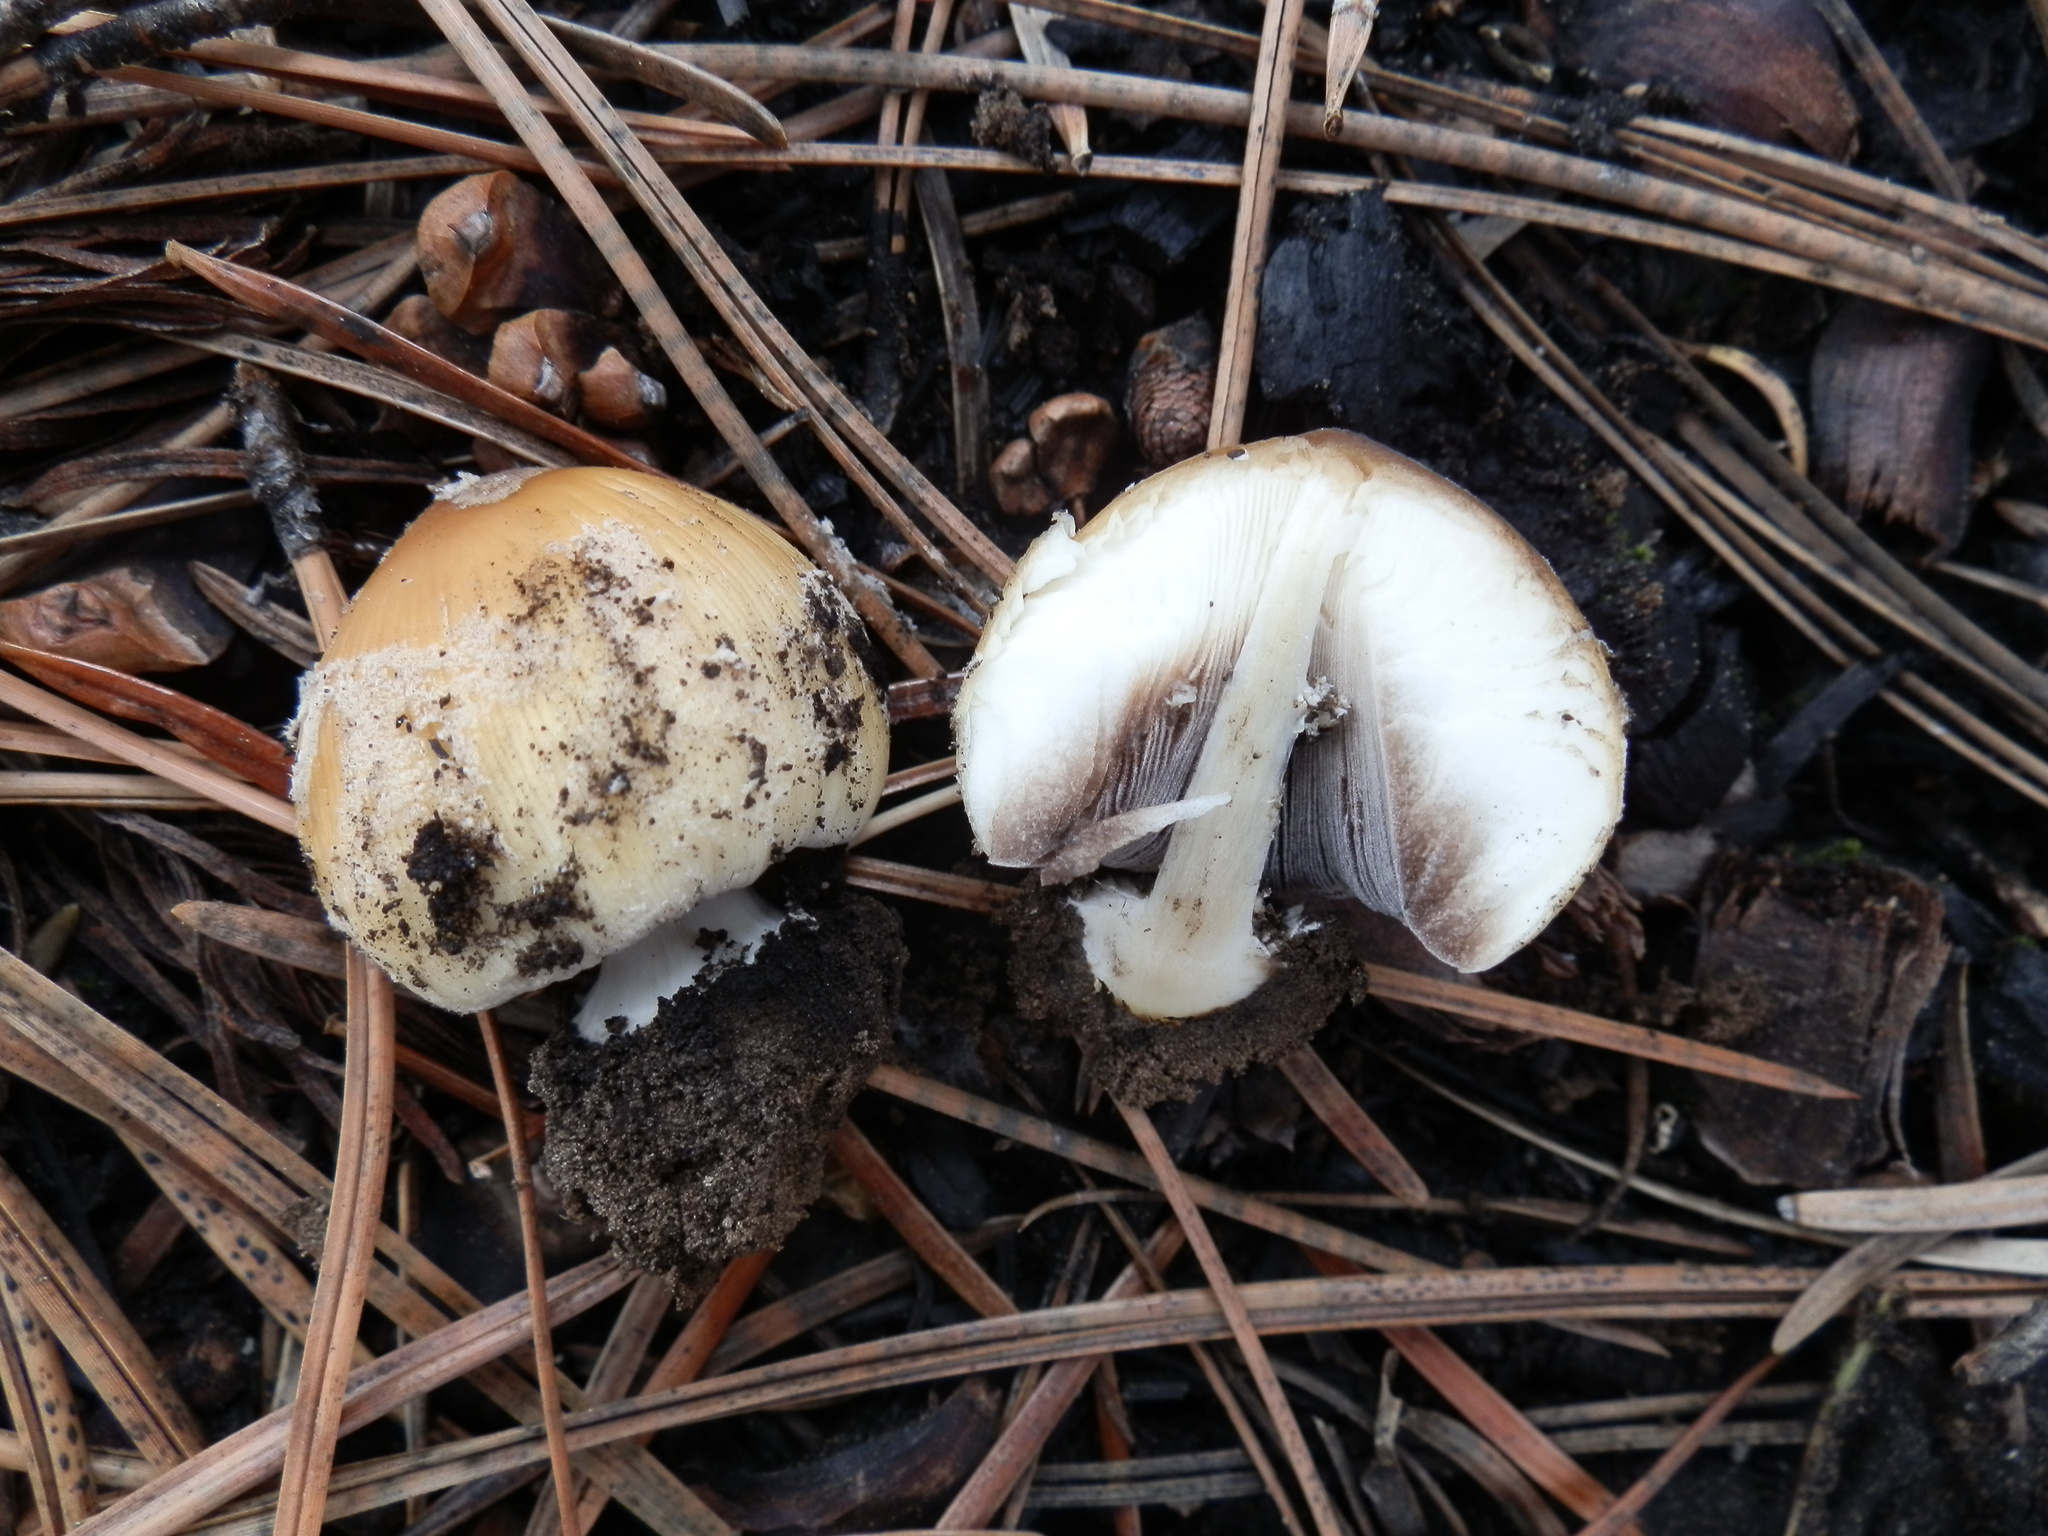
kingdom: Fungi
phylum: Basidiomycota
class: Agaricomycetes
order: Agaricales
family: Psathyrellaceae
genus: Coprinellus
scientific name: Coprinellus bipellis
